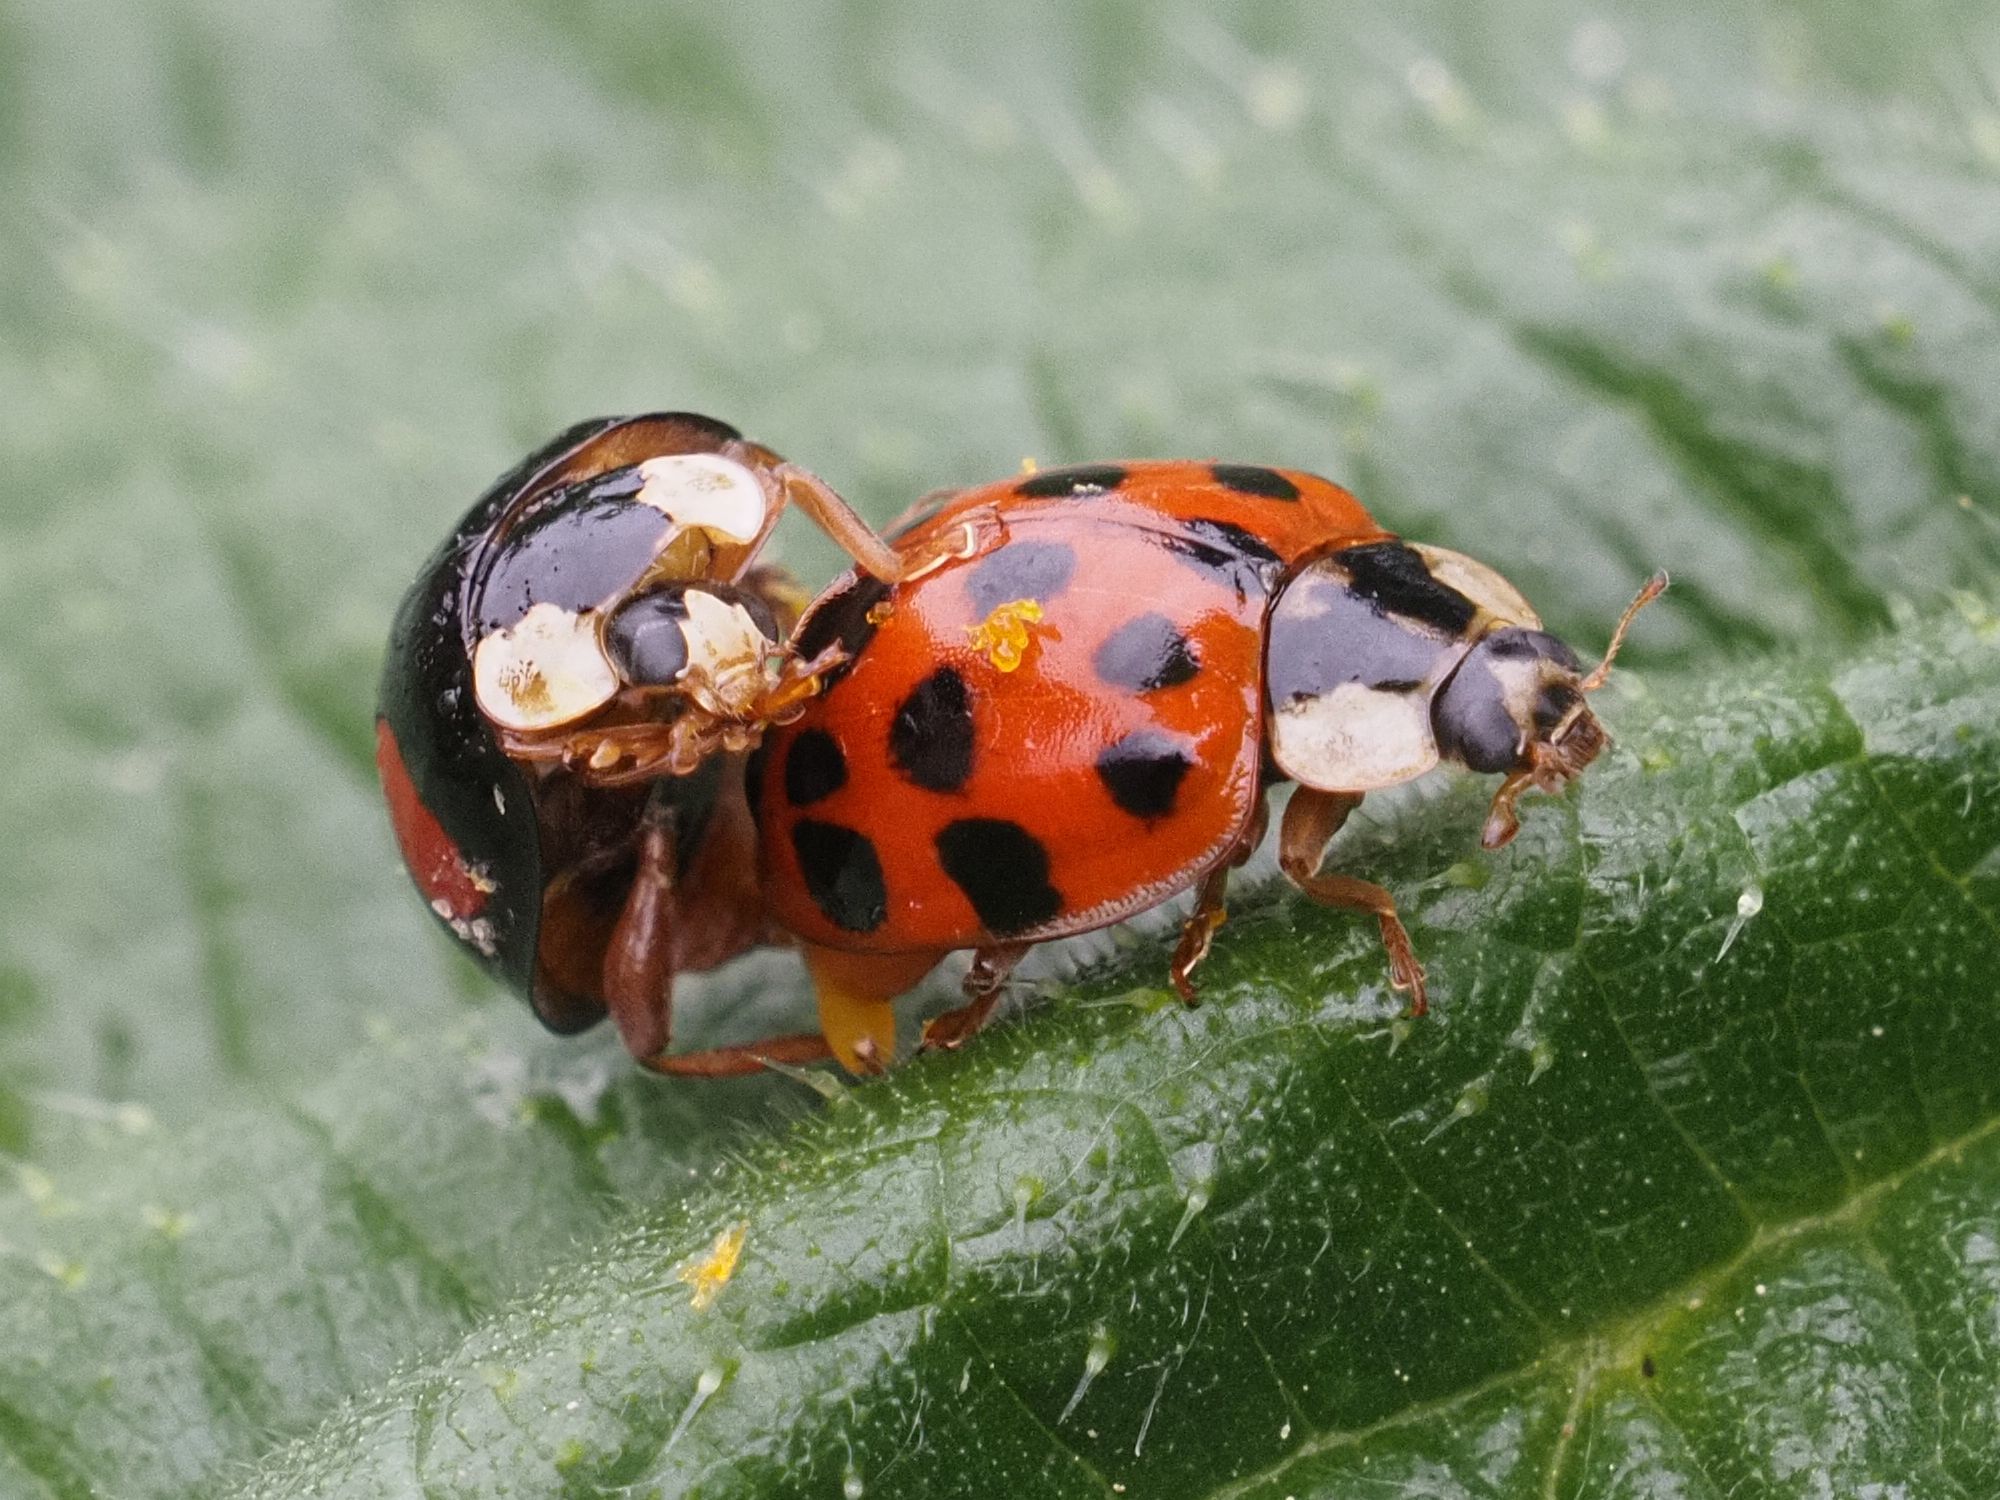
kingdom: Animalia
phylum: Arthropoda
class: Insecta
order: Coleoptera
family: Coccinellidae
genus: Harmonia
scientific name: Harmonia axyridis
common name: Harlequin ladybird
